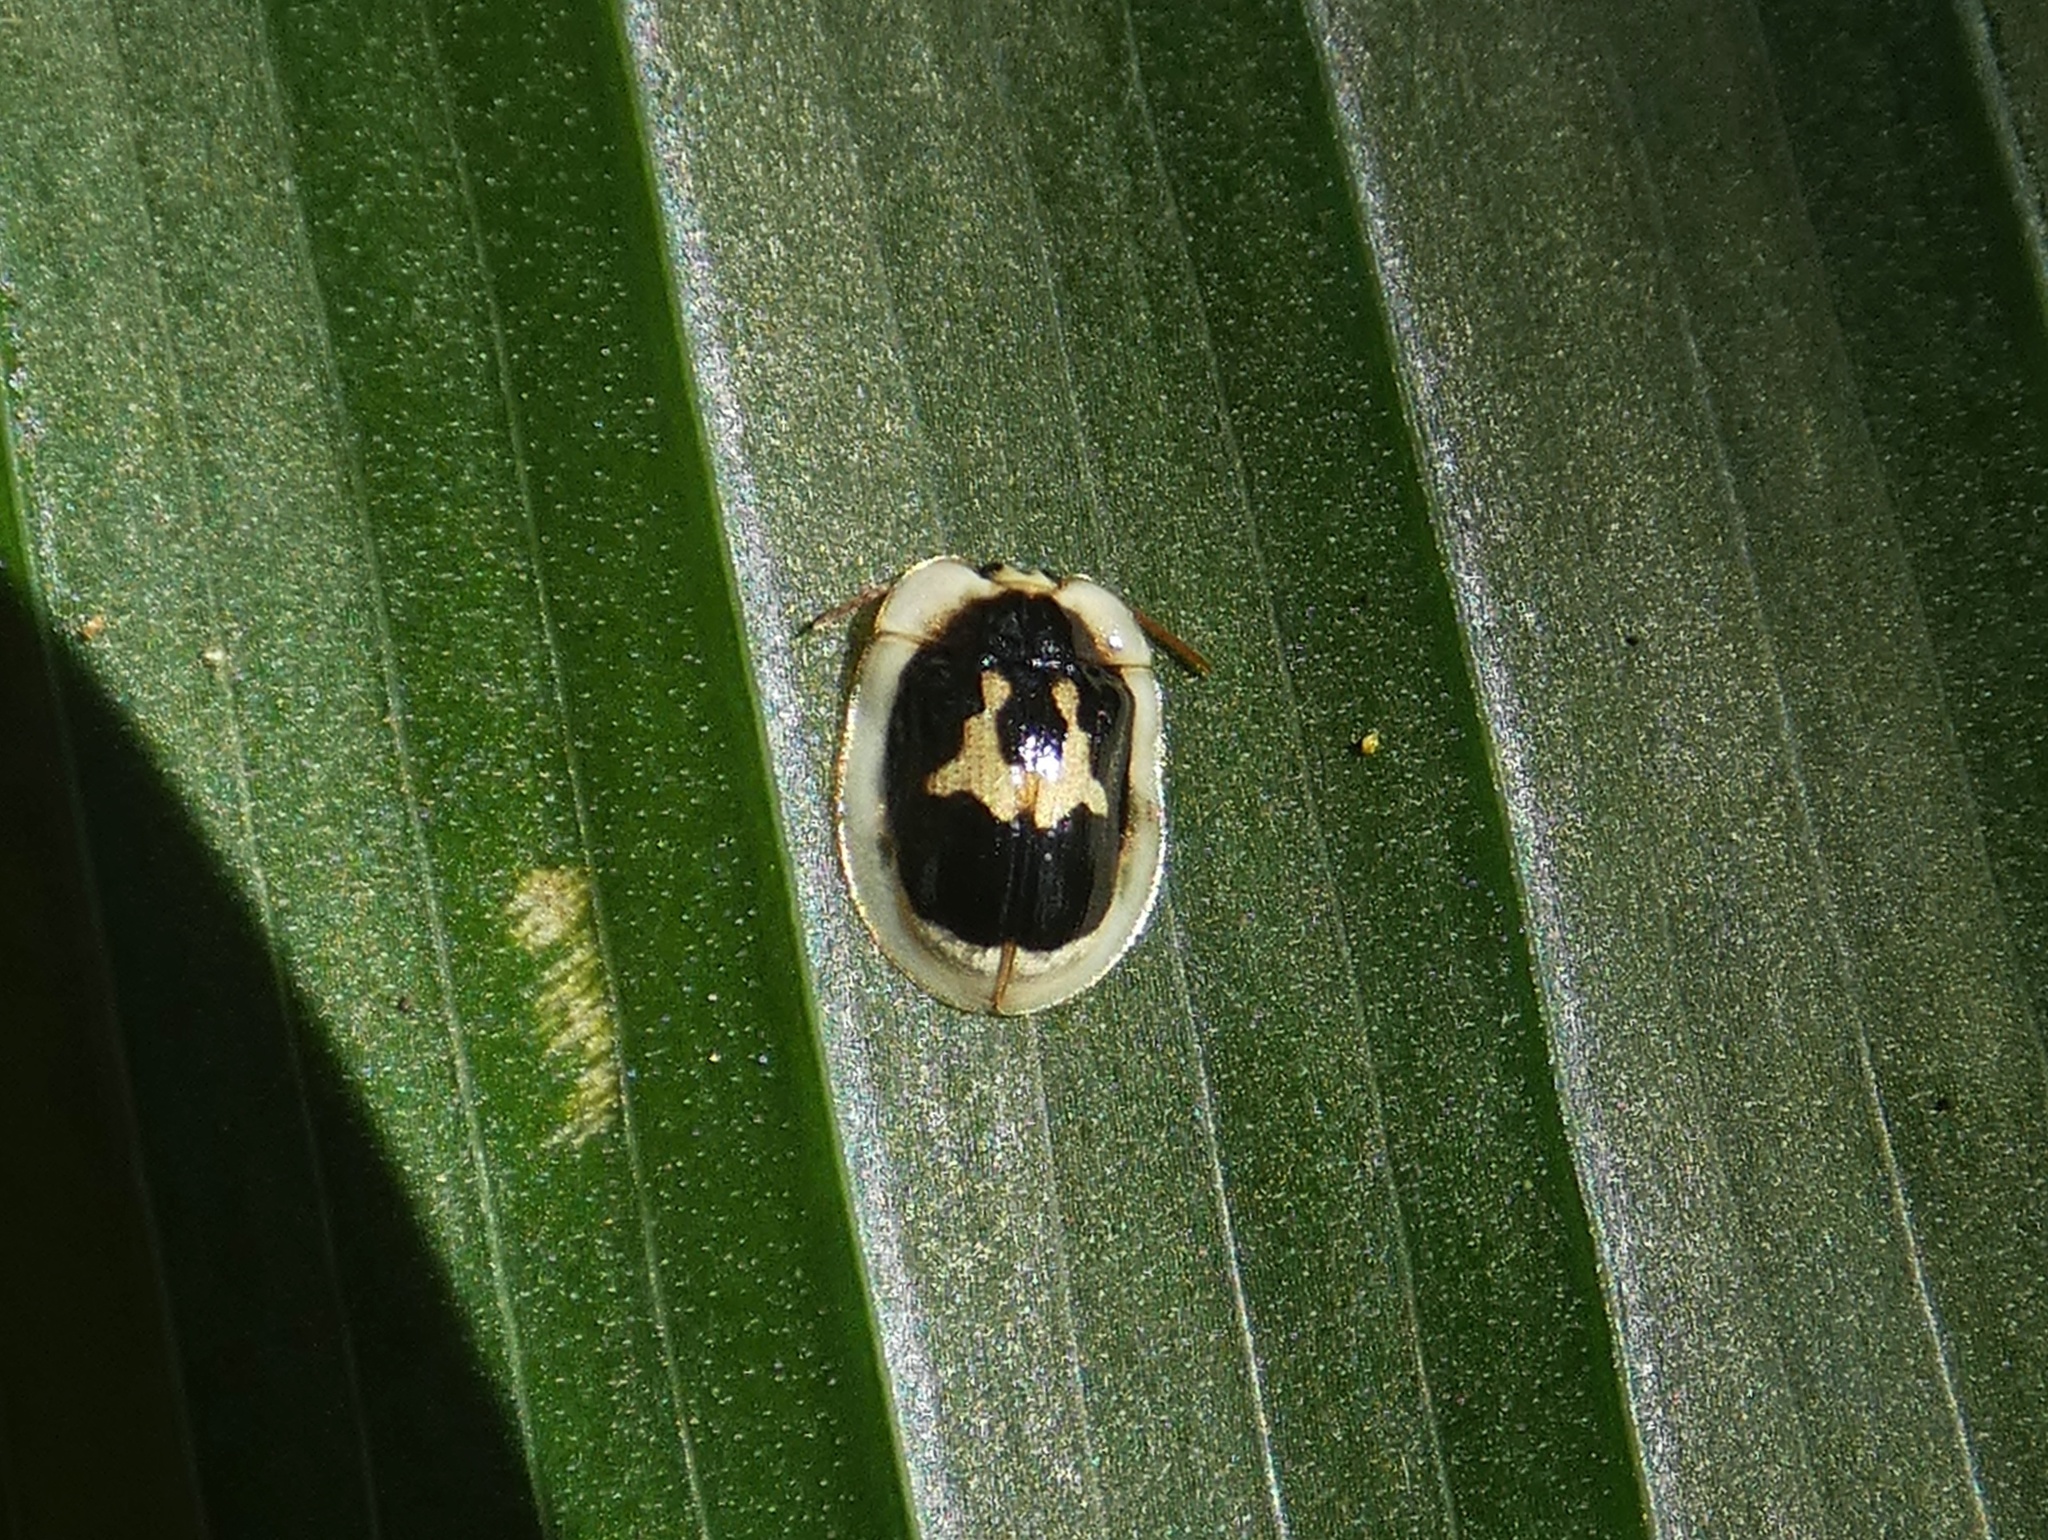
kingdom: Animalia
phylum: Arthropoda
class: Insecta
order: Coleoptera
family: Chrysomelidae
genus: Aslamidium
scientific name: Aslamidium semicirculare
